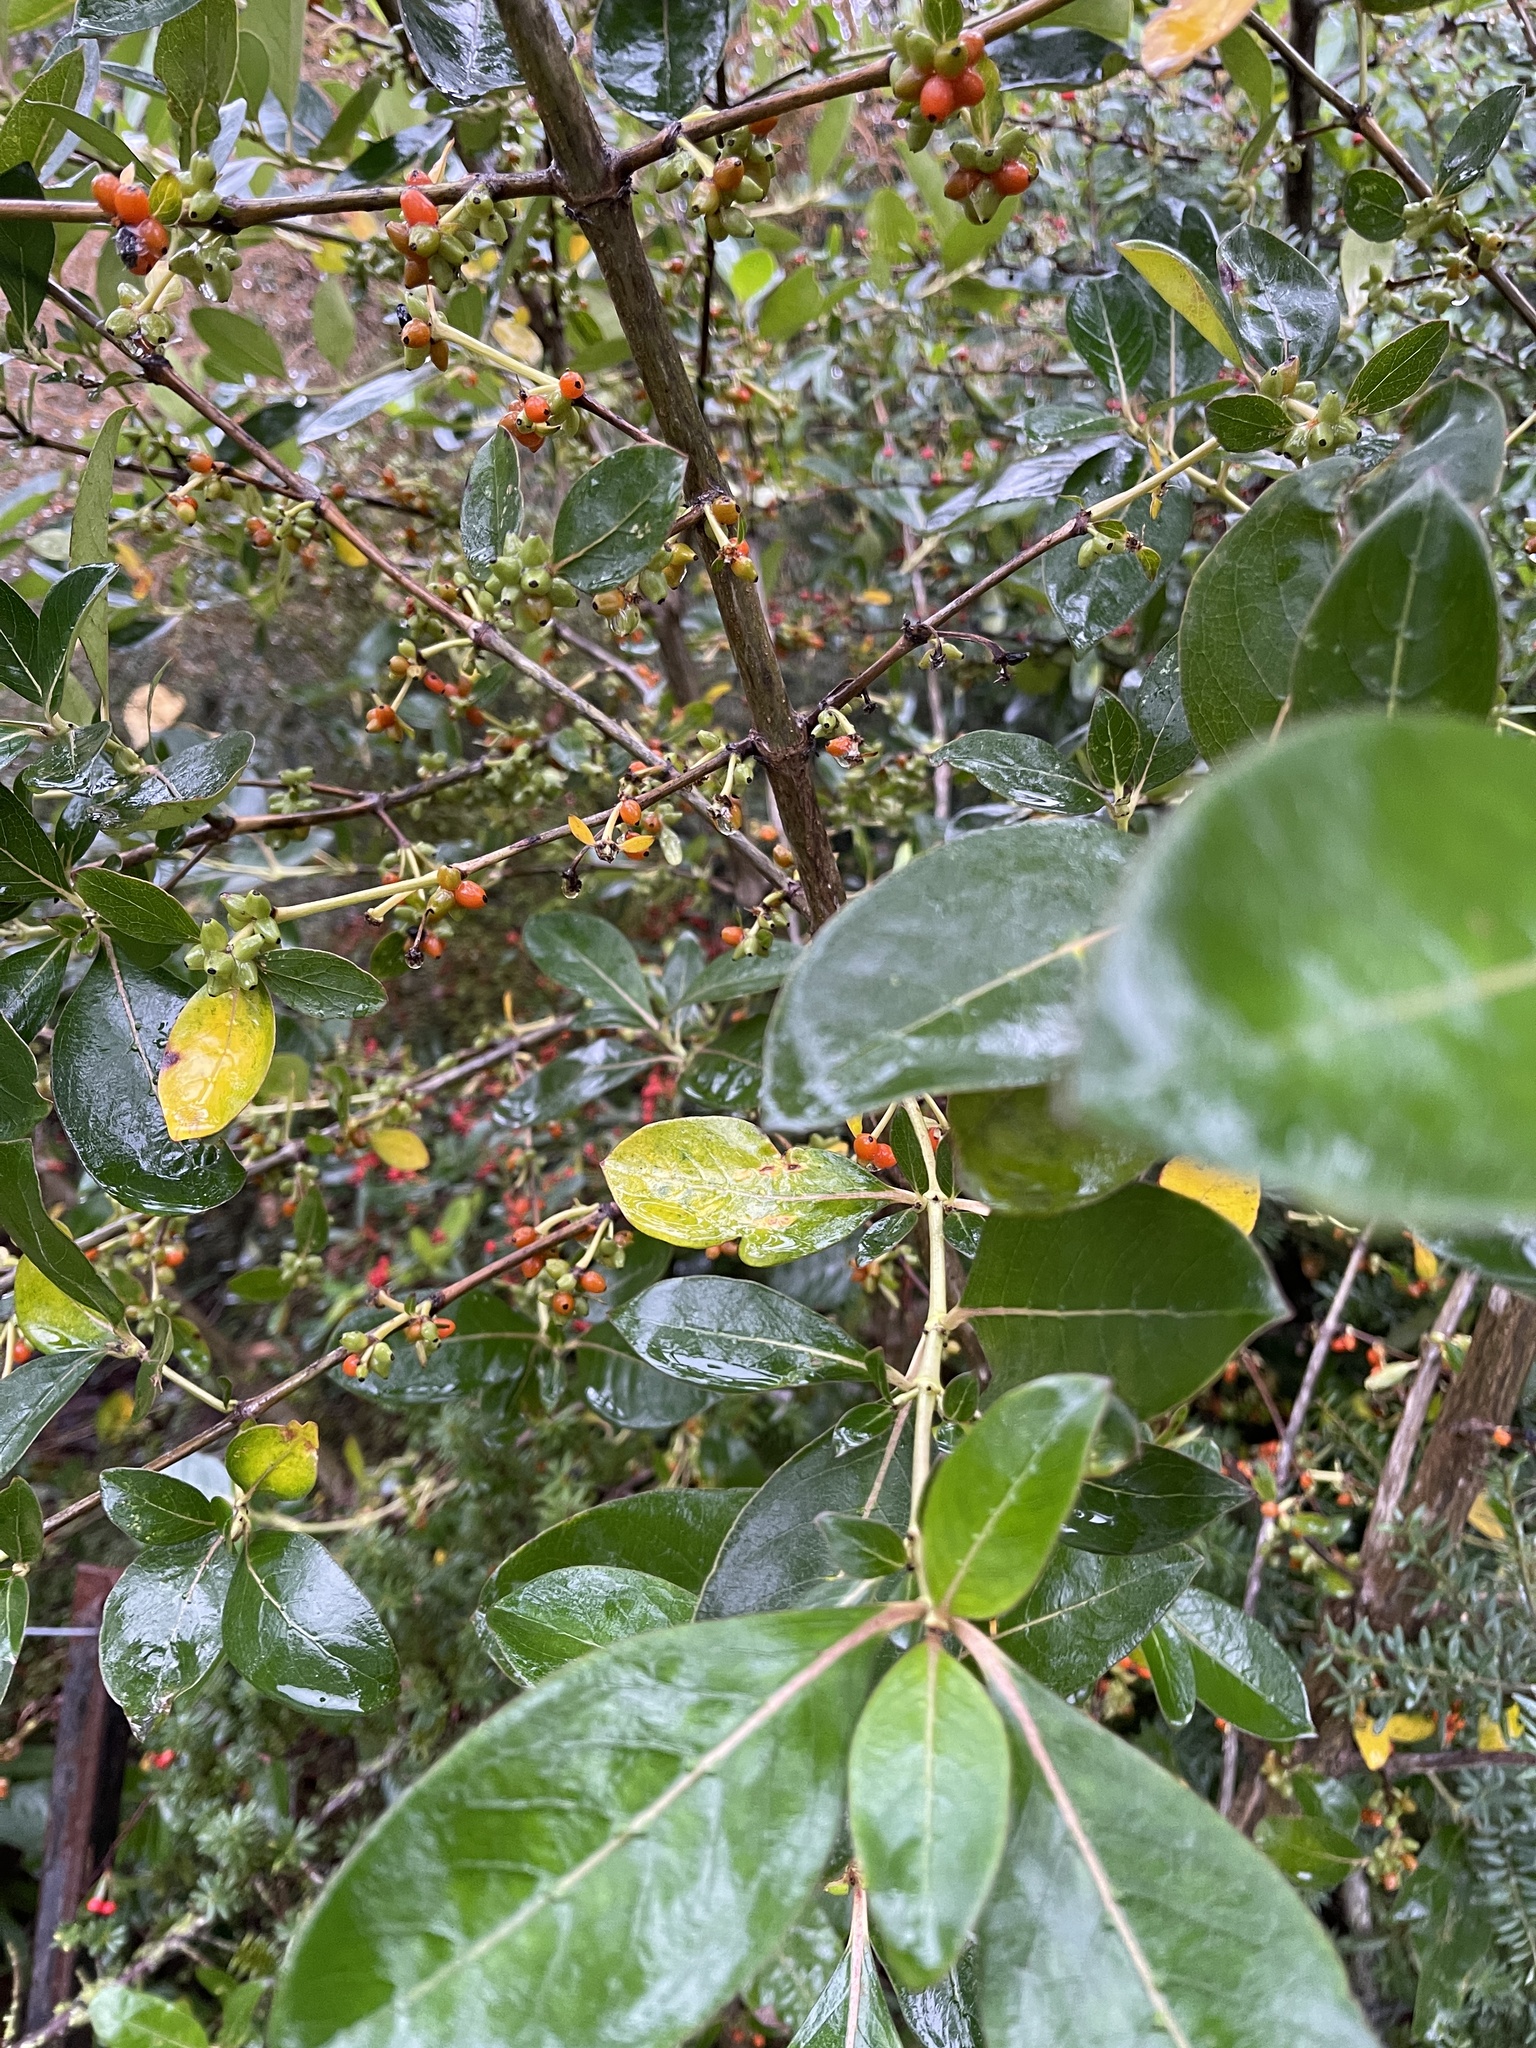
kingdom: Plantae
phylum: Tracheophyta
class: Magnoliopsida
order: Gentianales
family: Rubiaceae
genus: Coprosma
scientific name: Coprosma robusta
